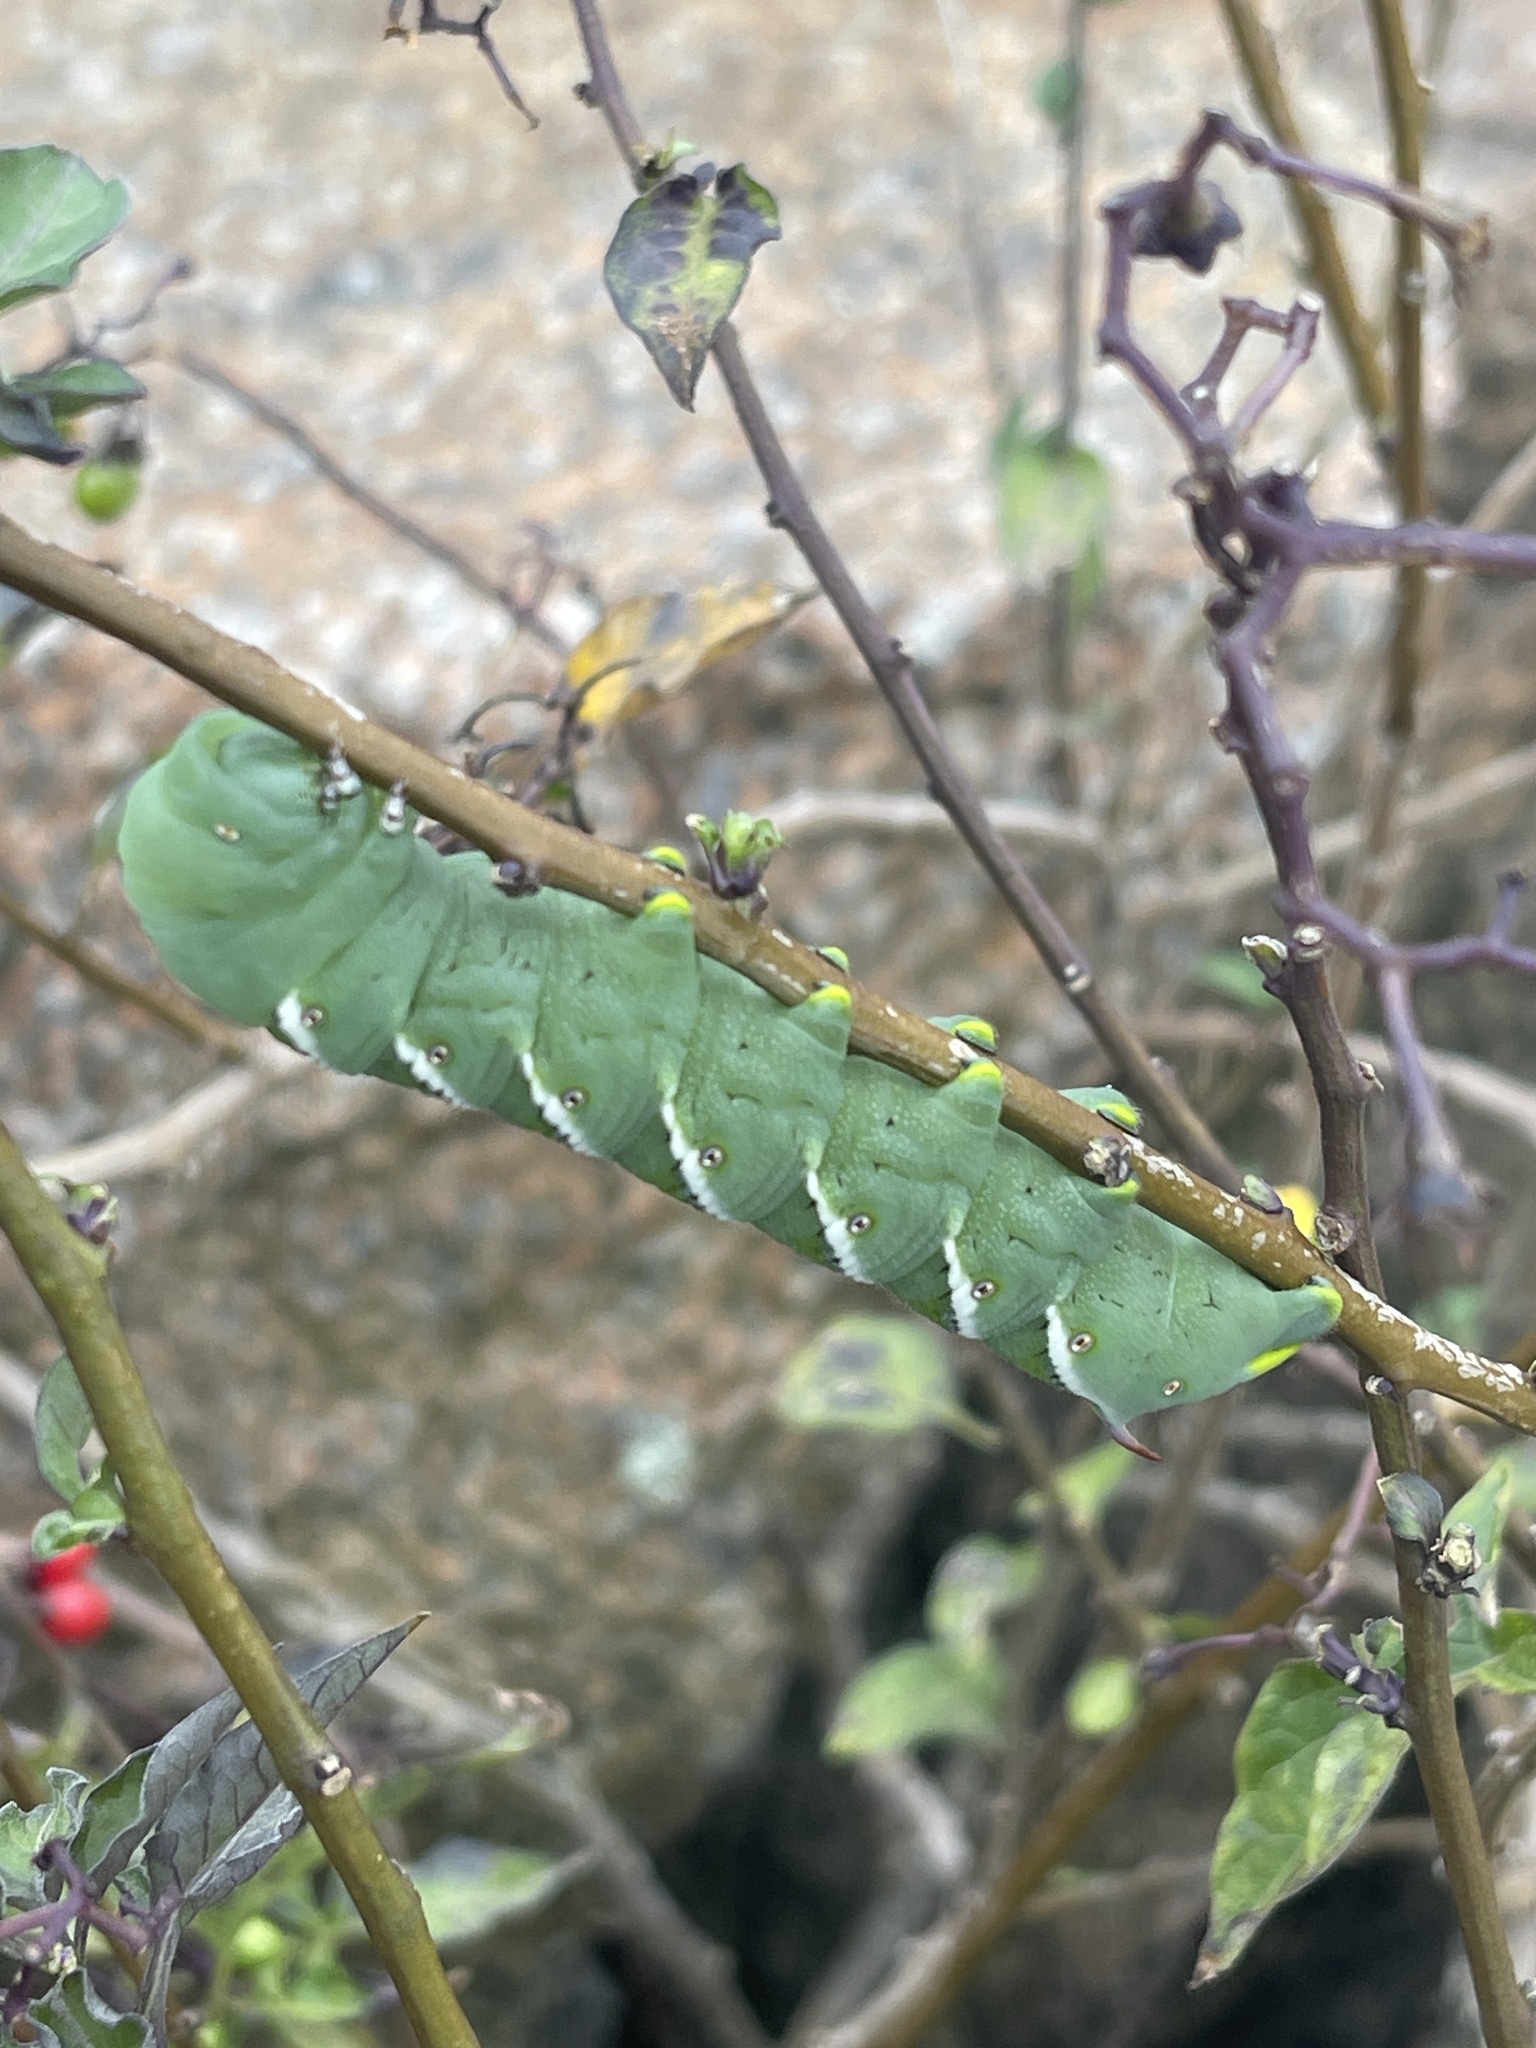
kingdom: Animalia
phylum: Arthropoda
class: Insecta
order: Lepidoptera
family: Sphingidae
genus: Manduca
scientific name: Manduca sexta
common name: Carolina sphinx
